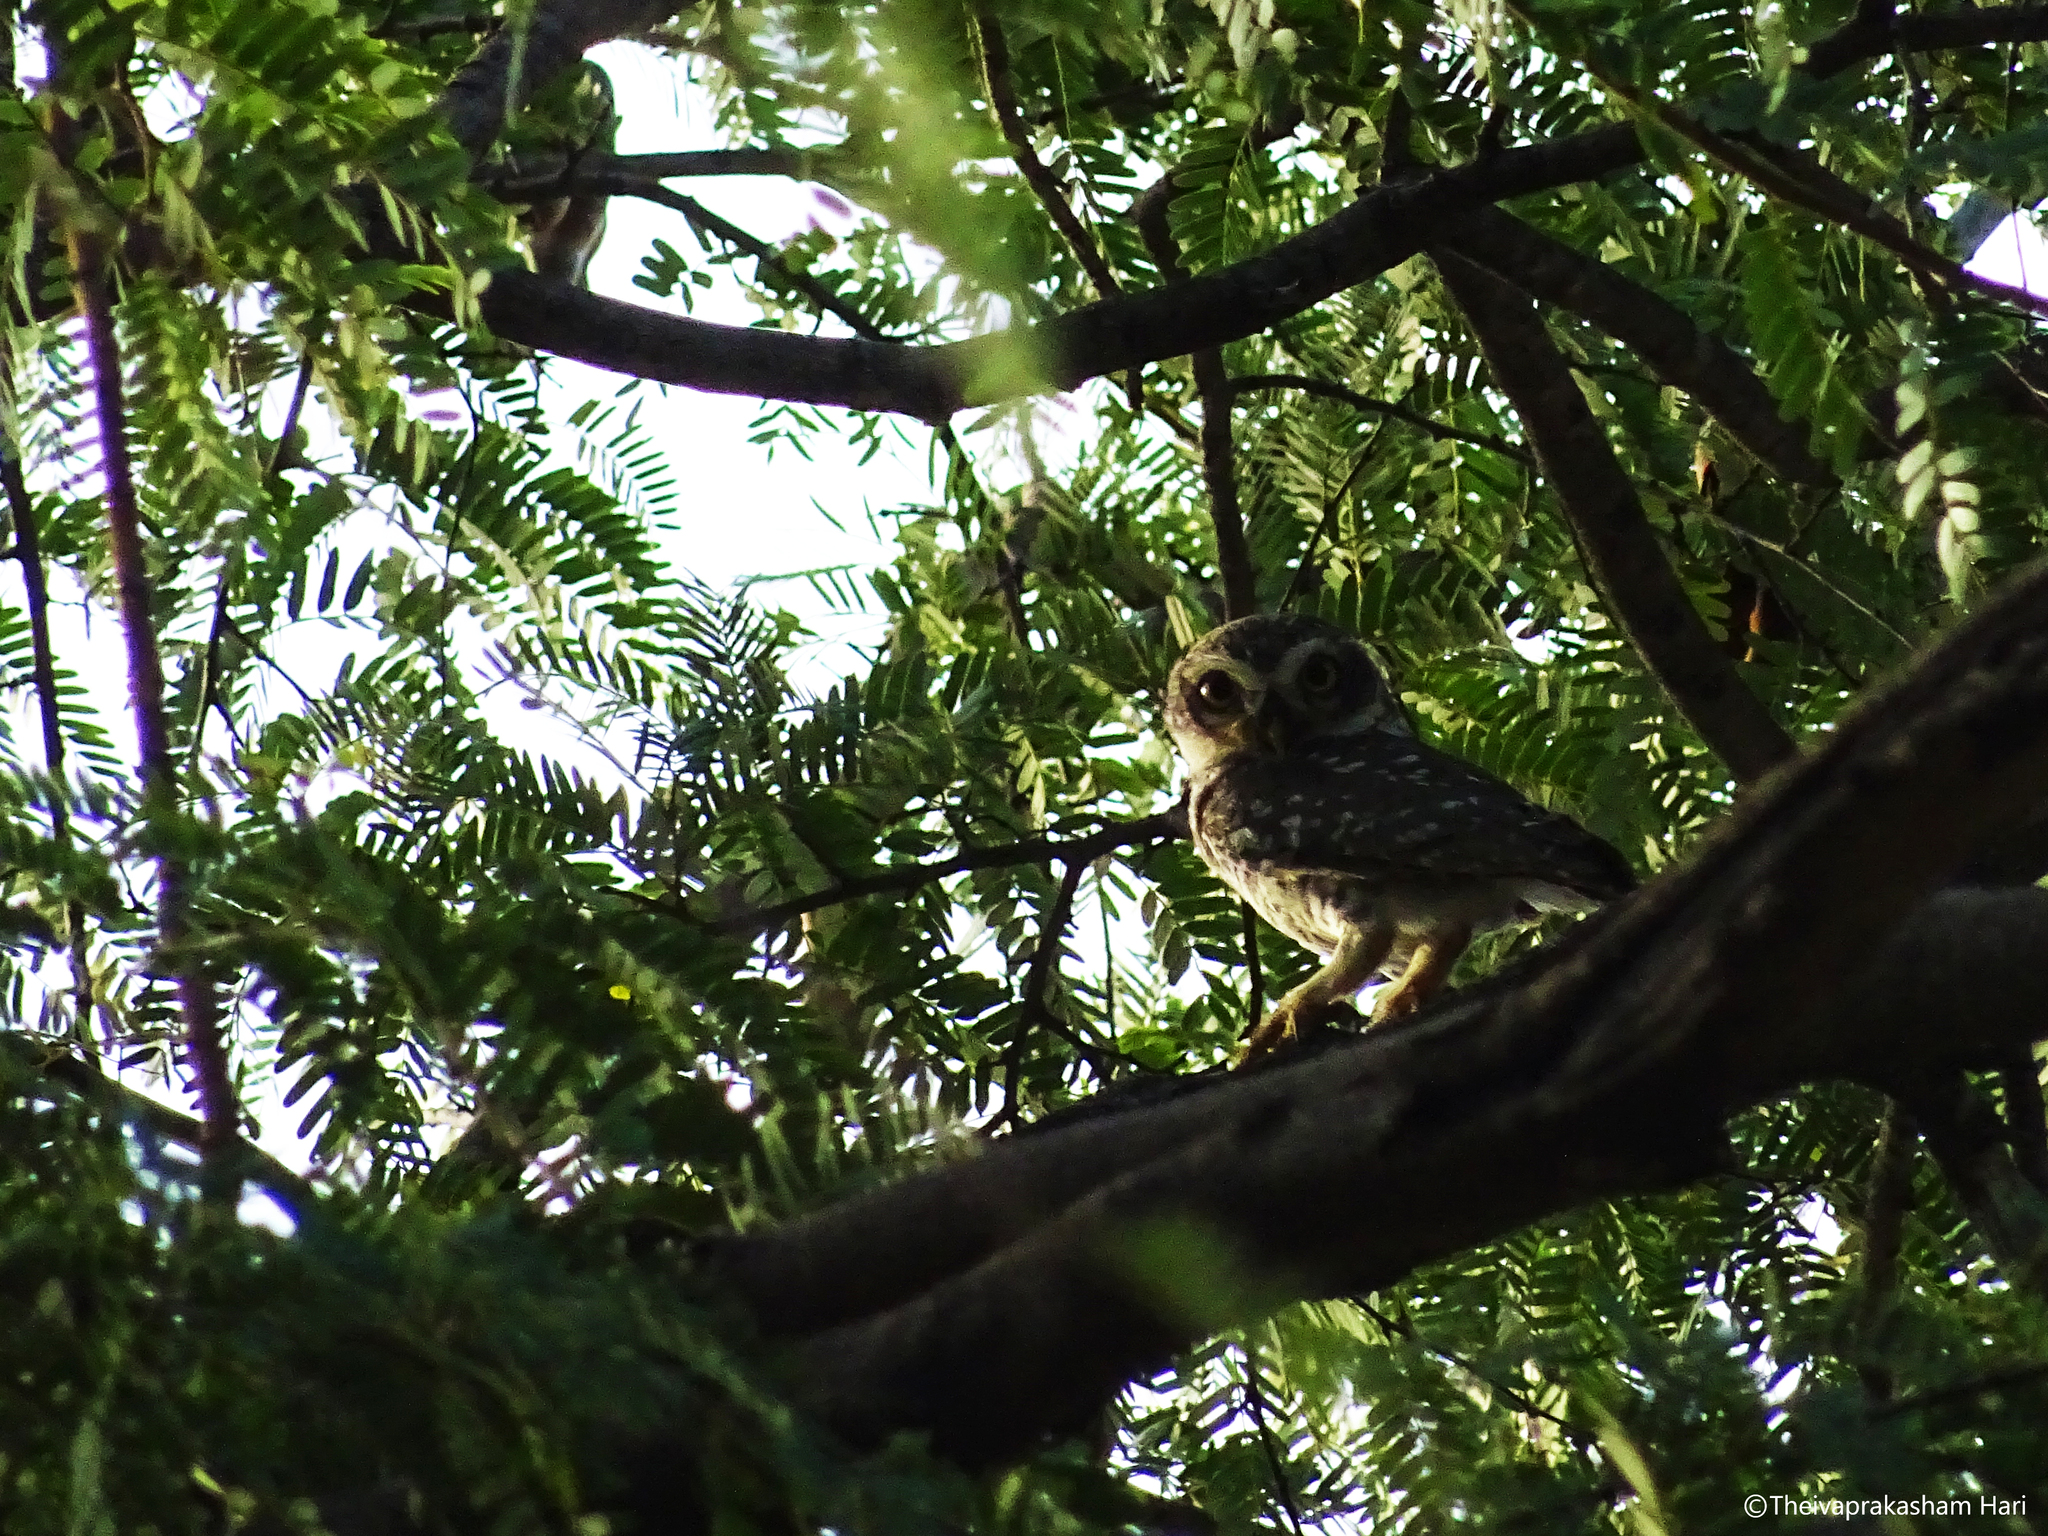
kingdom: Animalia
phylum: Chordata
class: Aves
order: Strigiformes
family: Strigidae
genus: Athene
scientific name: Athene brama
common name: Spotted owlet
